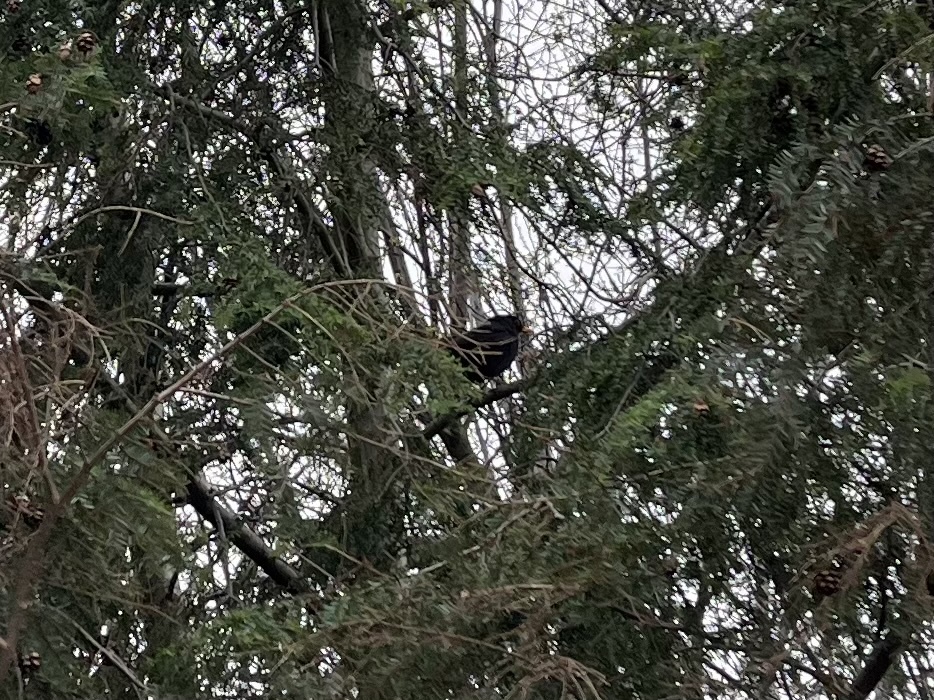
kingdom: Animalia
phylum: Chordata
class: Aves
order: Passeriformes
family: Turdidae
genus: Turdus
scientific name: Turdus merula
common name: Common blackbird
